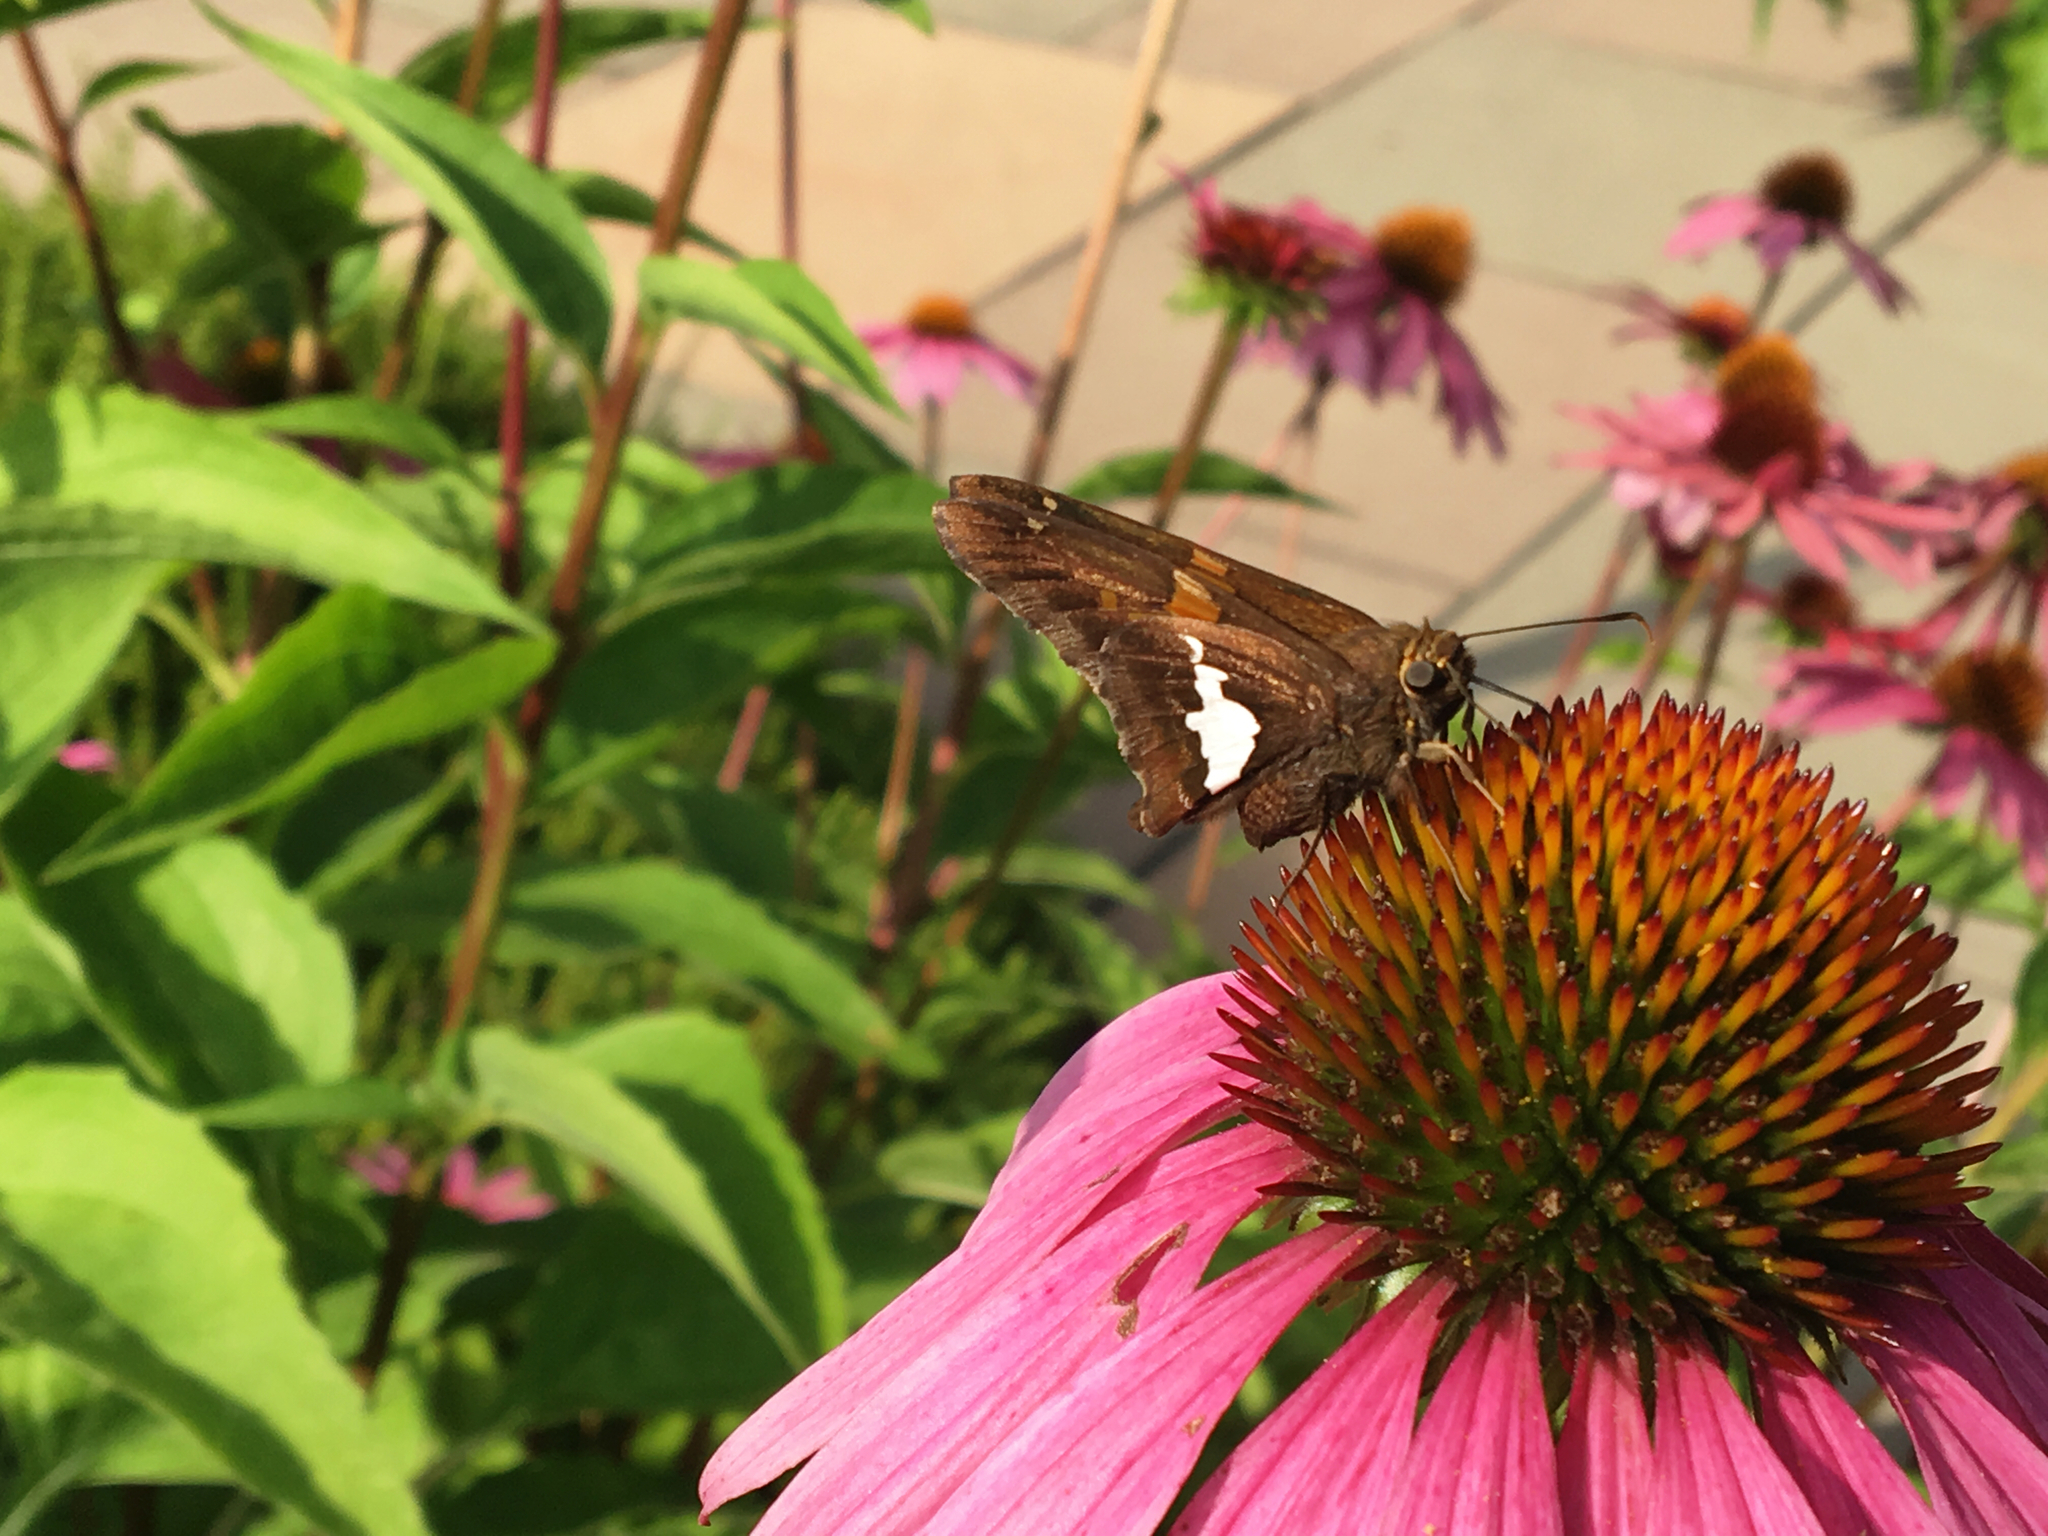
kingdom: Animalia
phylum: Arthropoda
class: Insecta
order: Lepidoptera
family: Hesperiidae
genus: Epargyreus
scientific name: Epargyreus clarus
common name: Silver-spotted skipper
